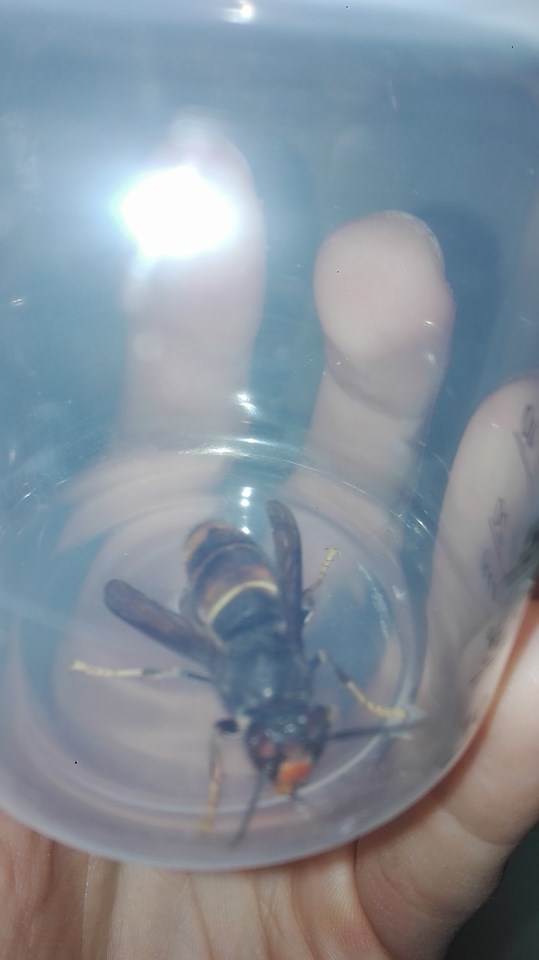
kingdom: Animalia
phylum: Arthropoda
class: Insecta
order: Hymenoptera
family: Vespidae
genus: Vespa
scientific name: Vespa velutina
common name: Asian hornet
